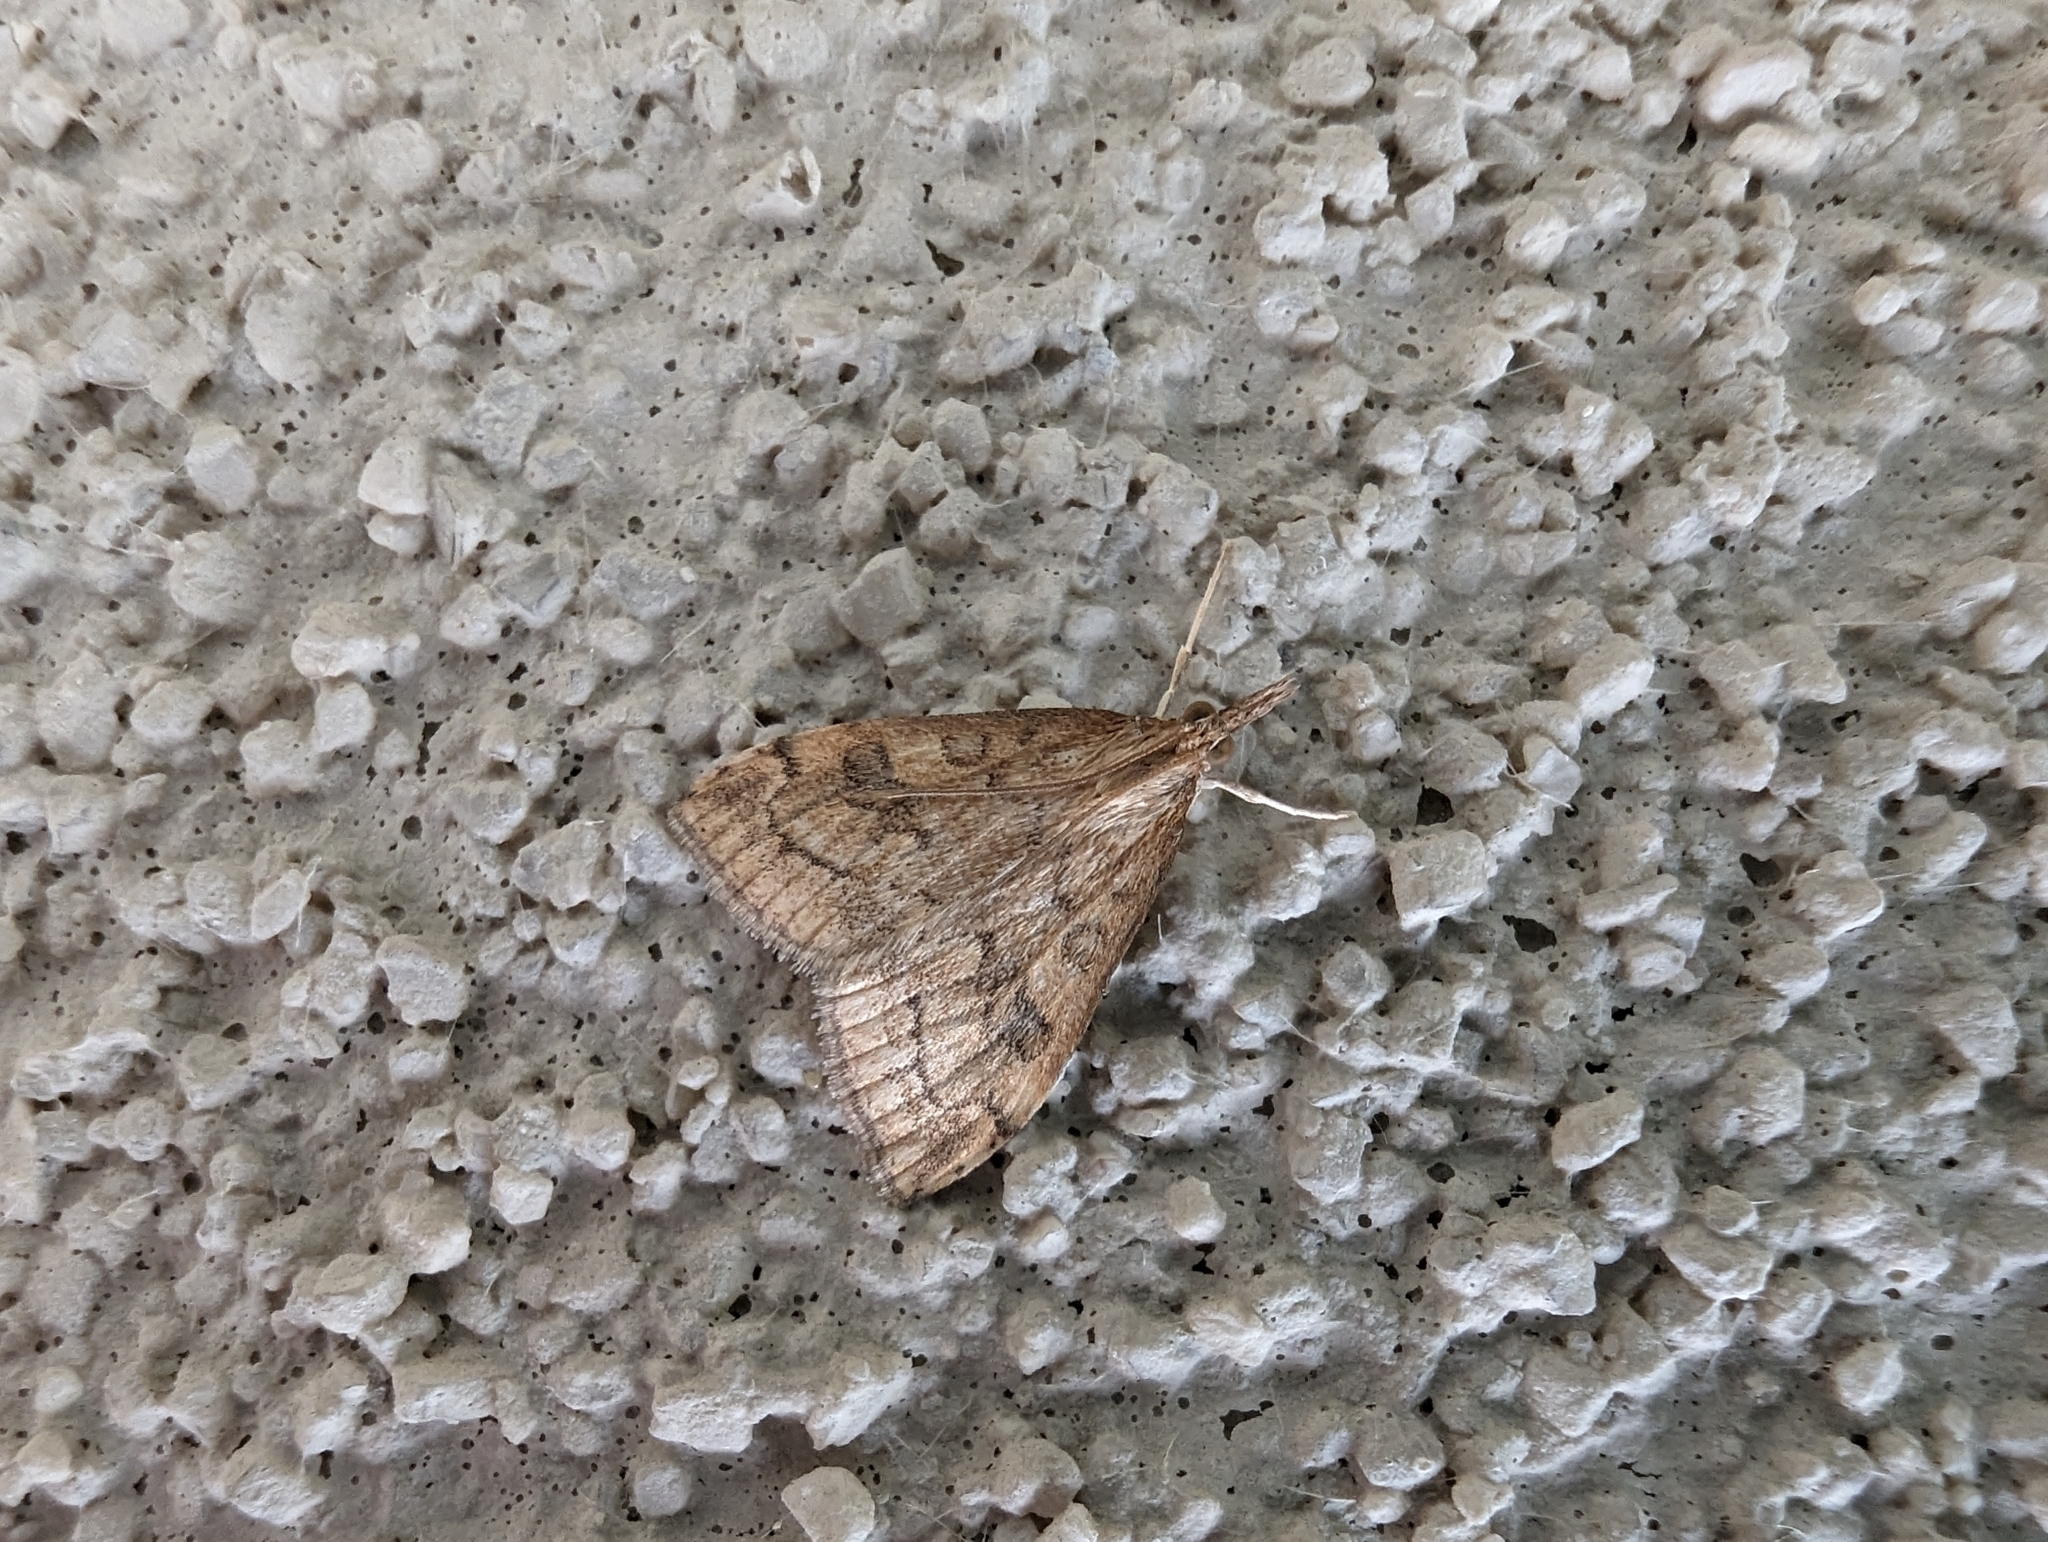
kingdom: Animalia
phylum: Arthropoda
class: Insecta
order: Lepidoptera
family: Crambidae
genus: Udea
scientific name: Udea profundalis
